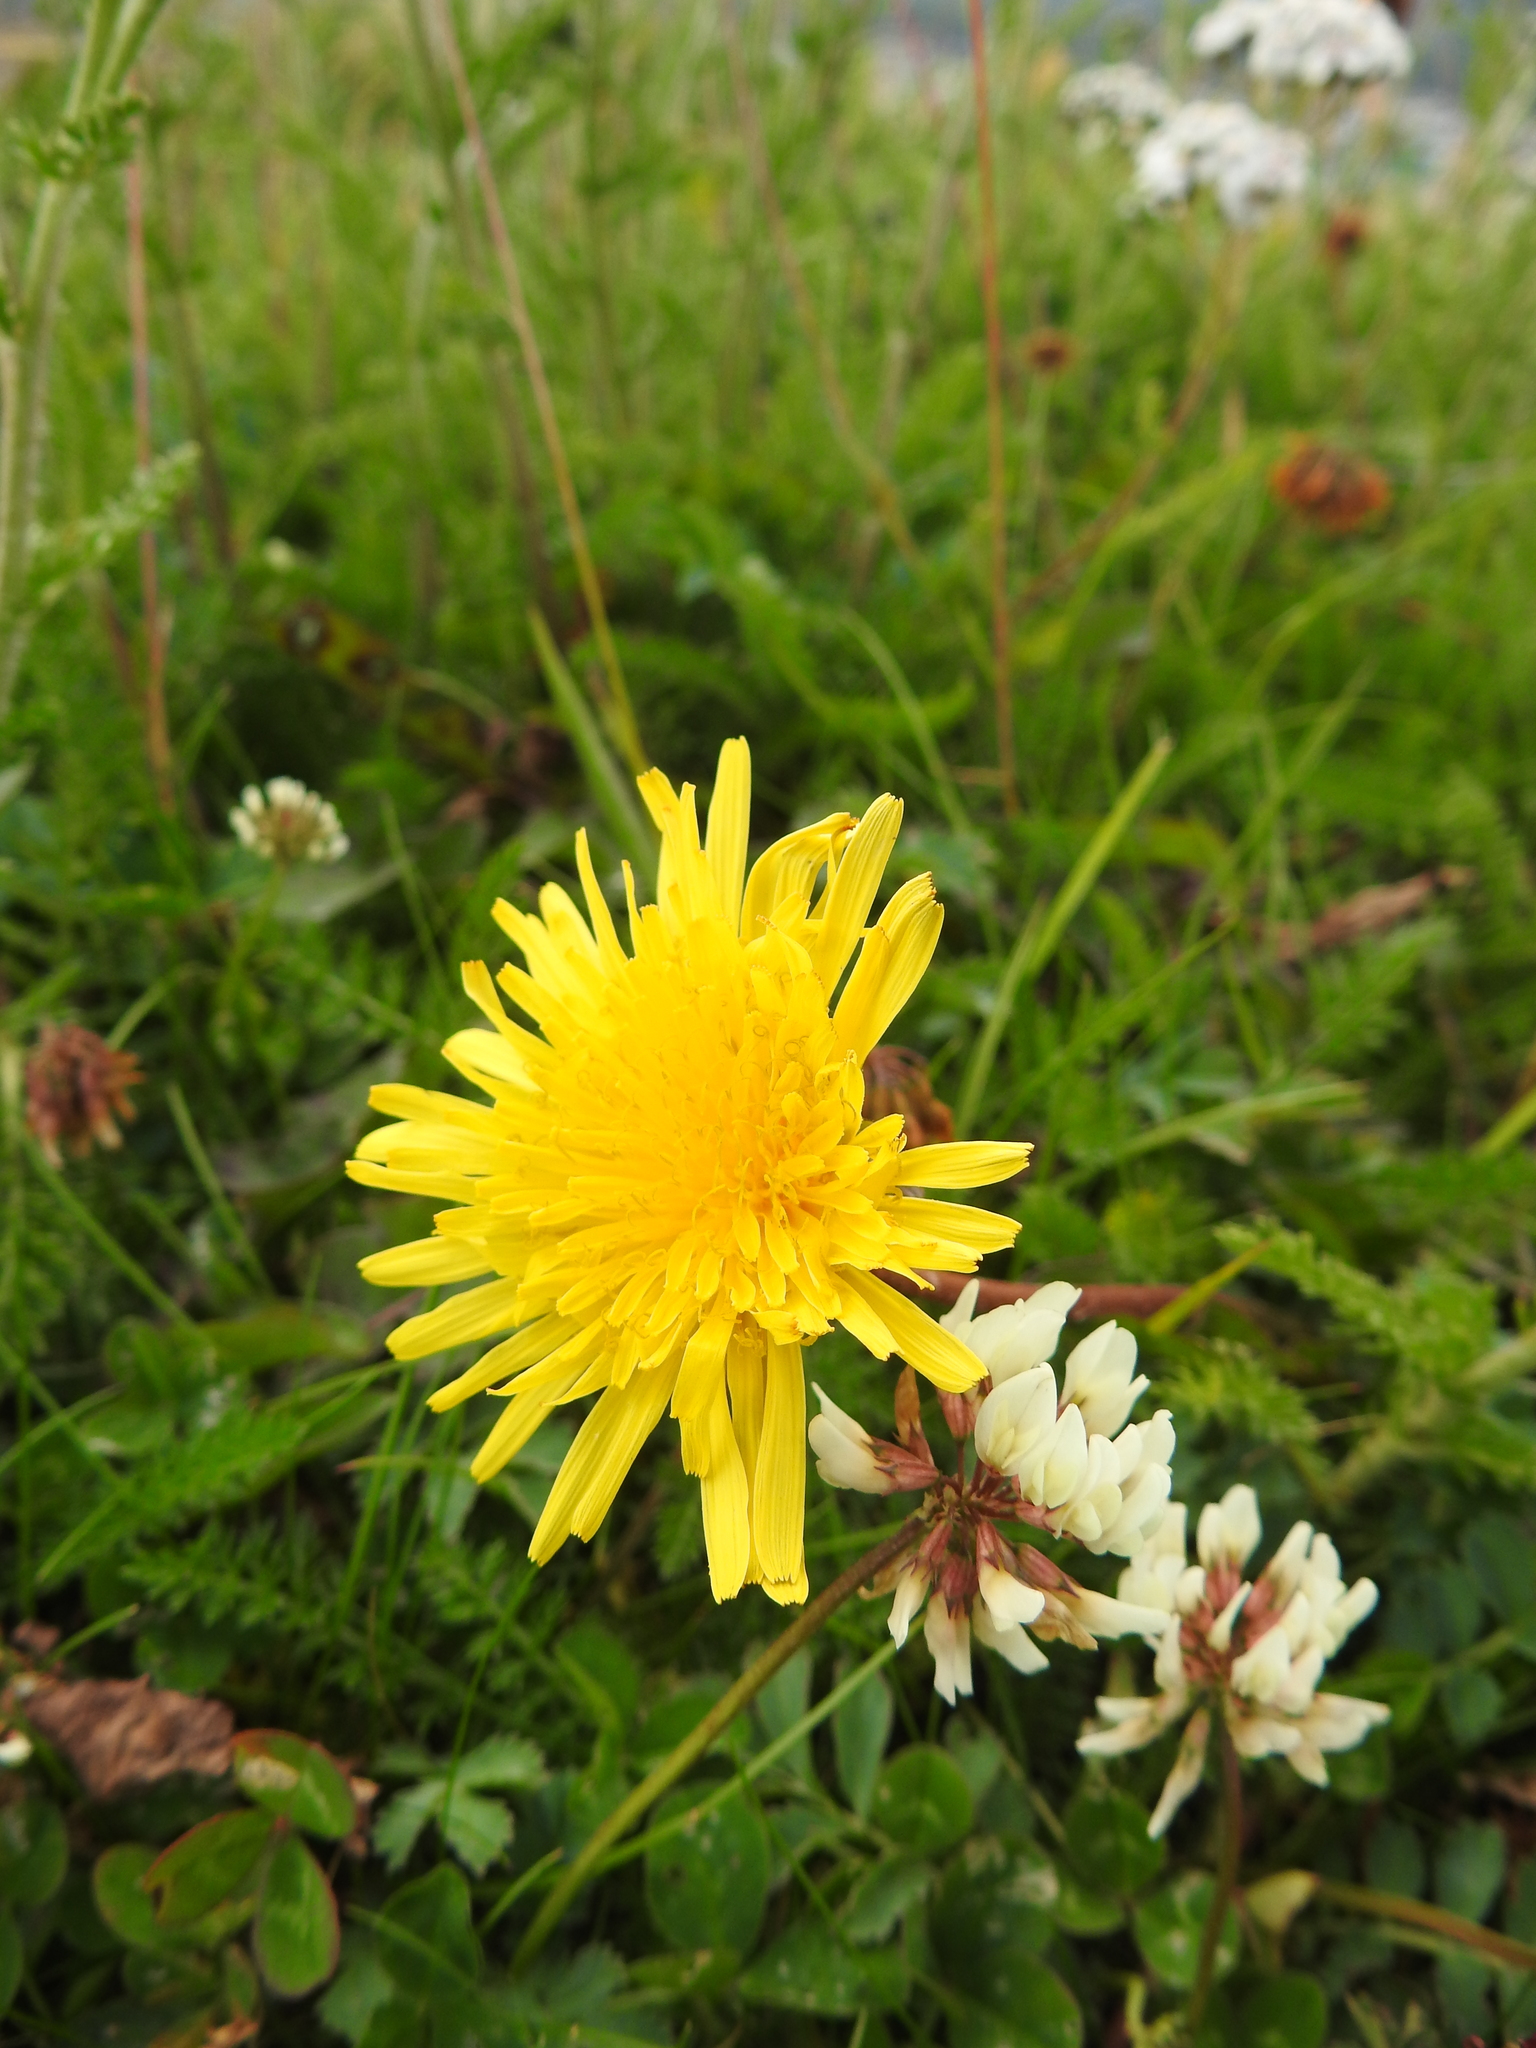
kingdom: Plantae
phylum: Tracheophyta
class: Magnoliopsida
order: Asterales
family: Asteraceae
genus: Taraxacum
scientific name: Taraxacum officinale
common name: Common dandelion
